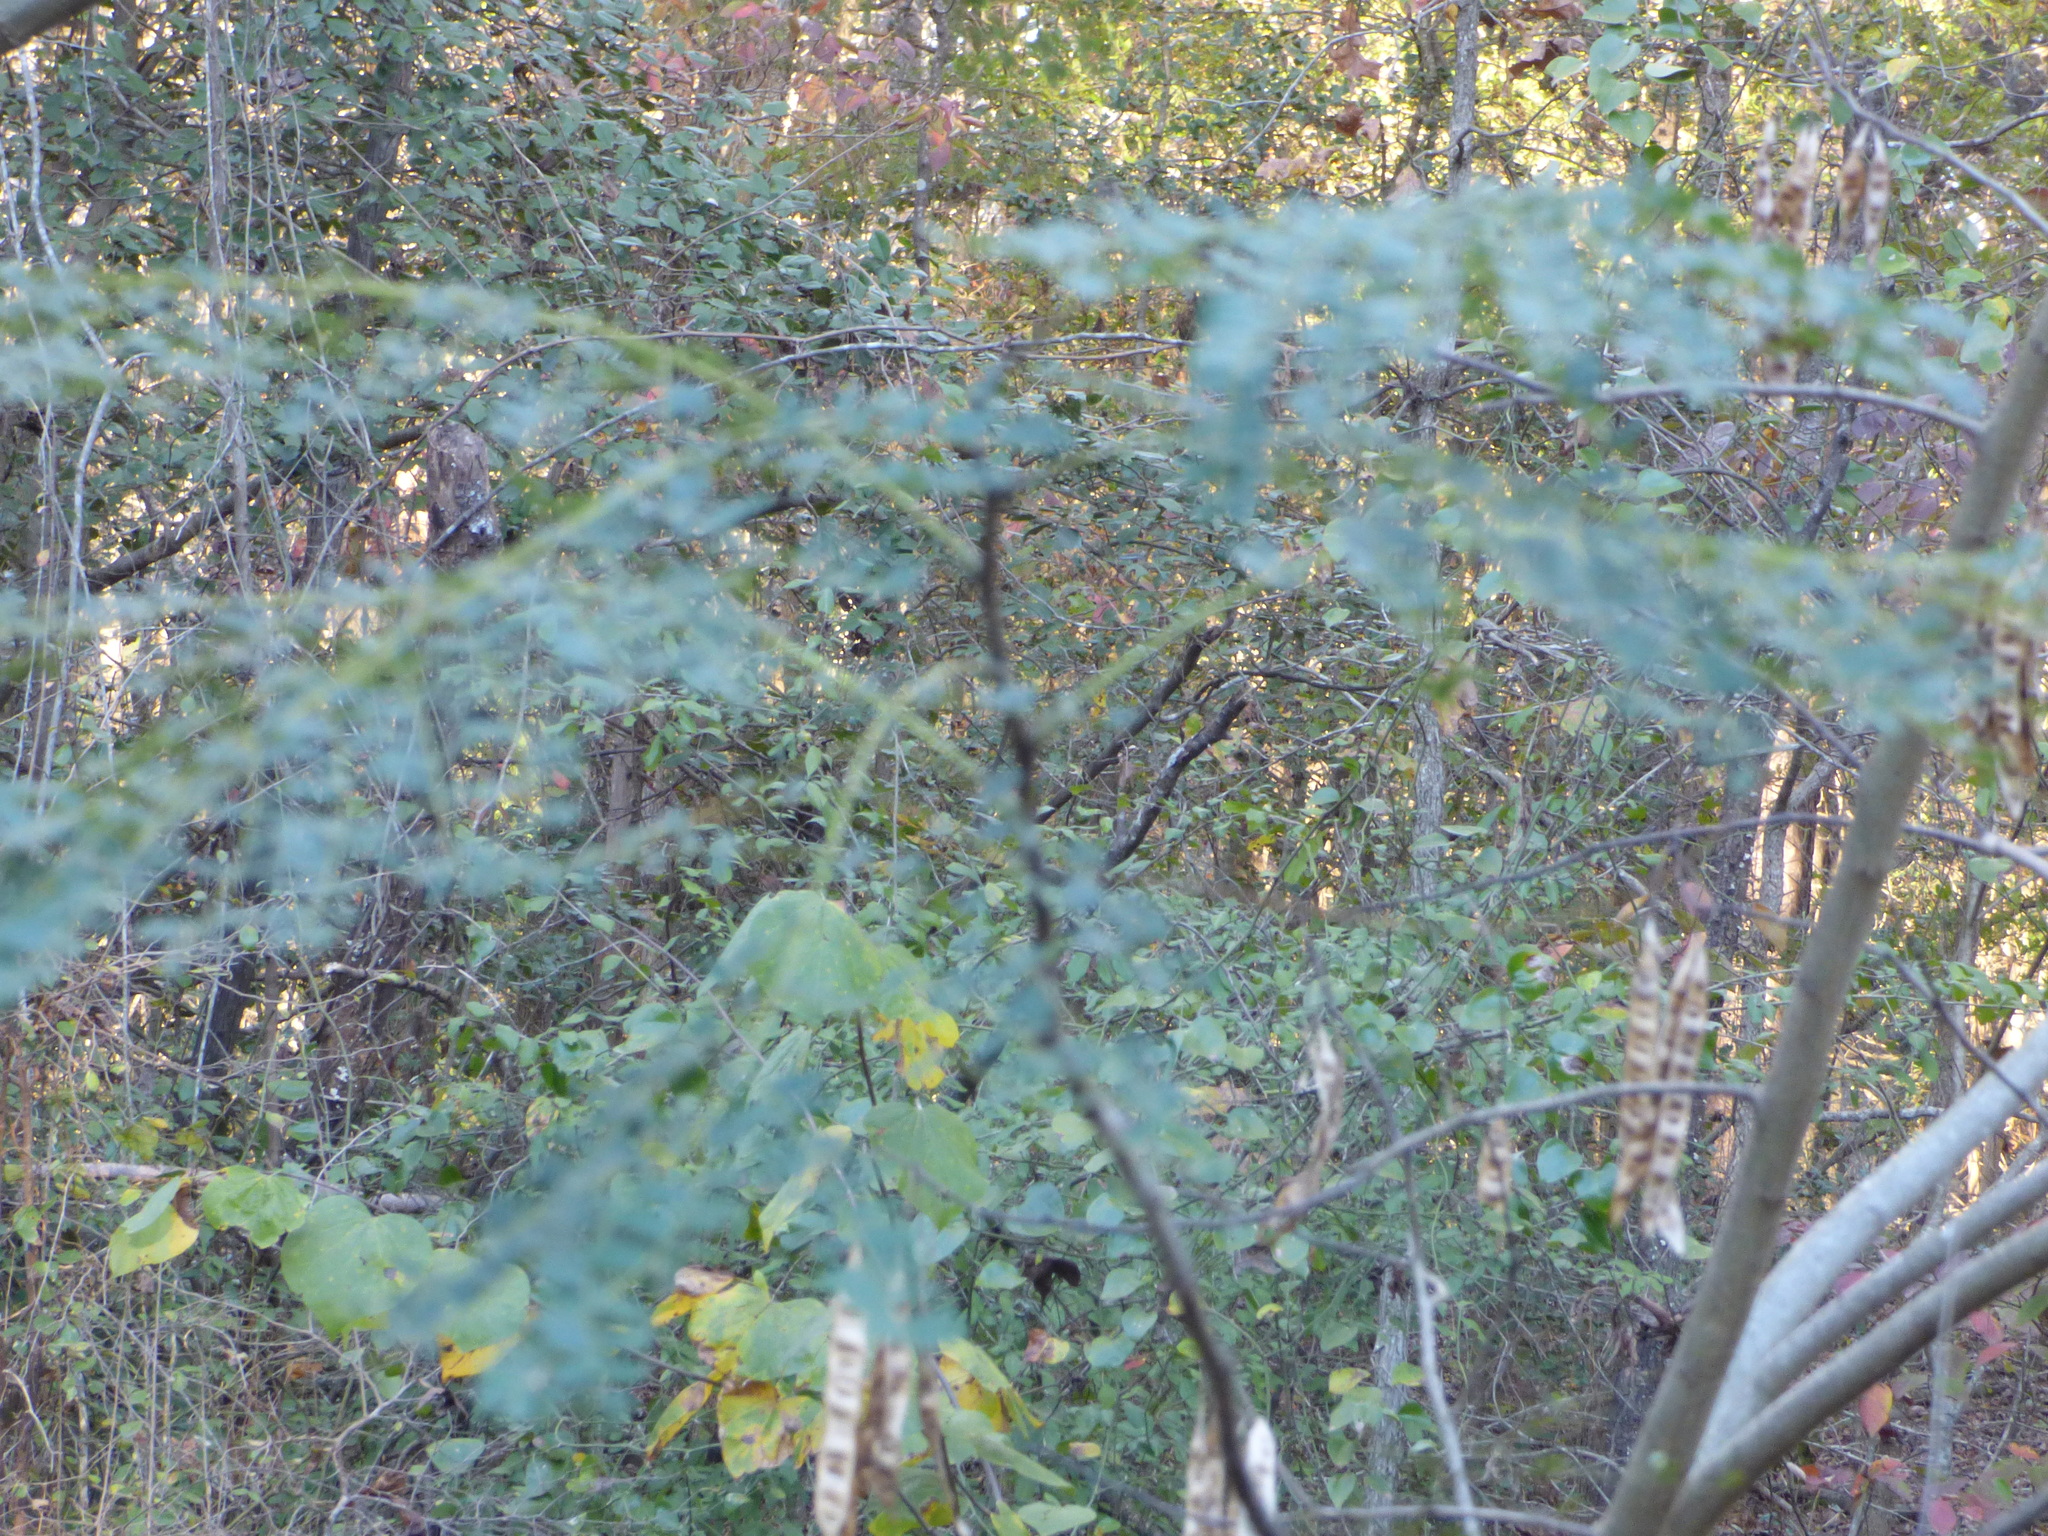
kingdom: Plantae
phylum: Tracheophyta
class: Magnoliopsida
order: Fabales
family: Fabaceae
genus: Albizia
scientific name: Albizia julibrissin
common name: Silktree
